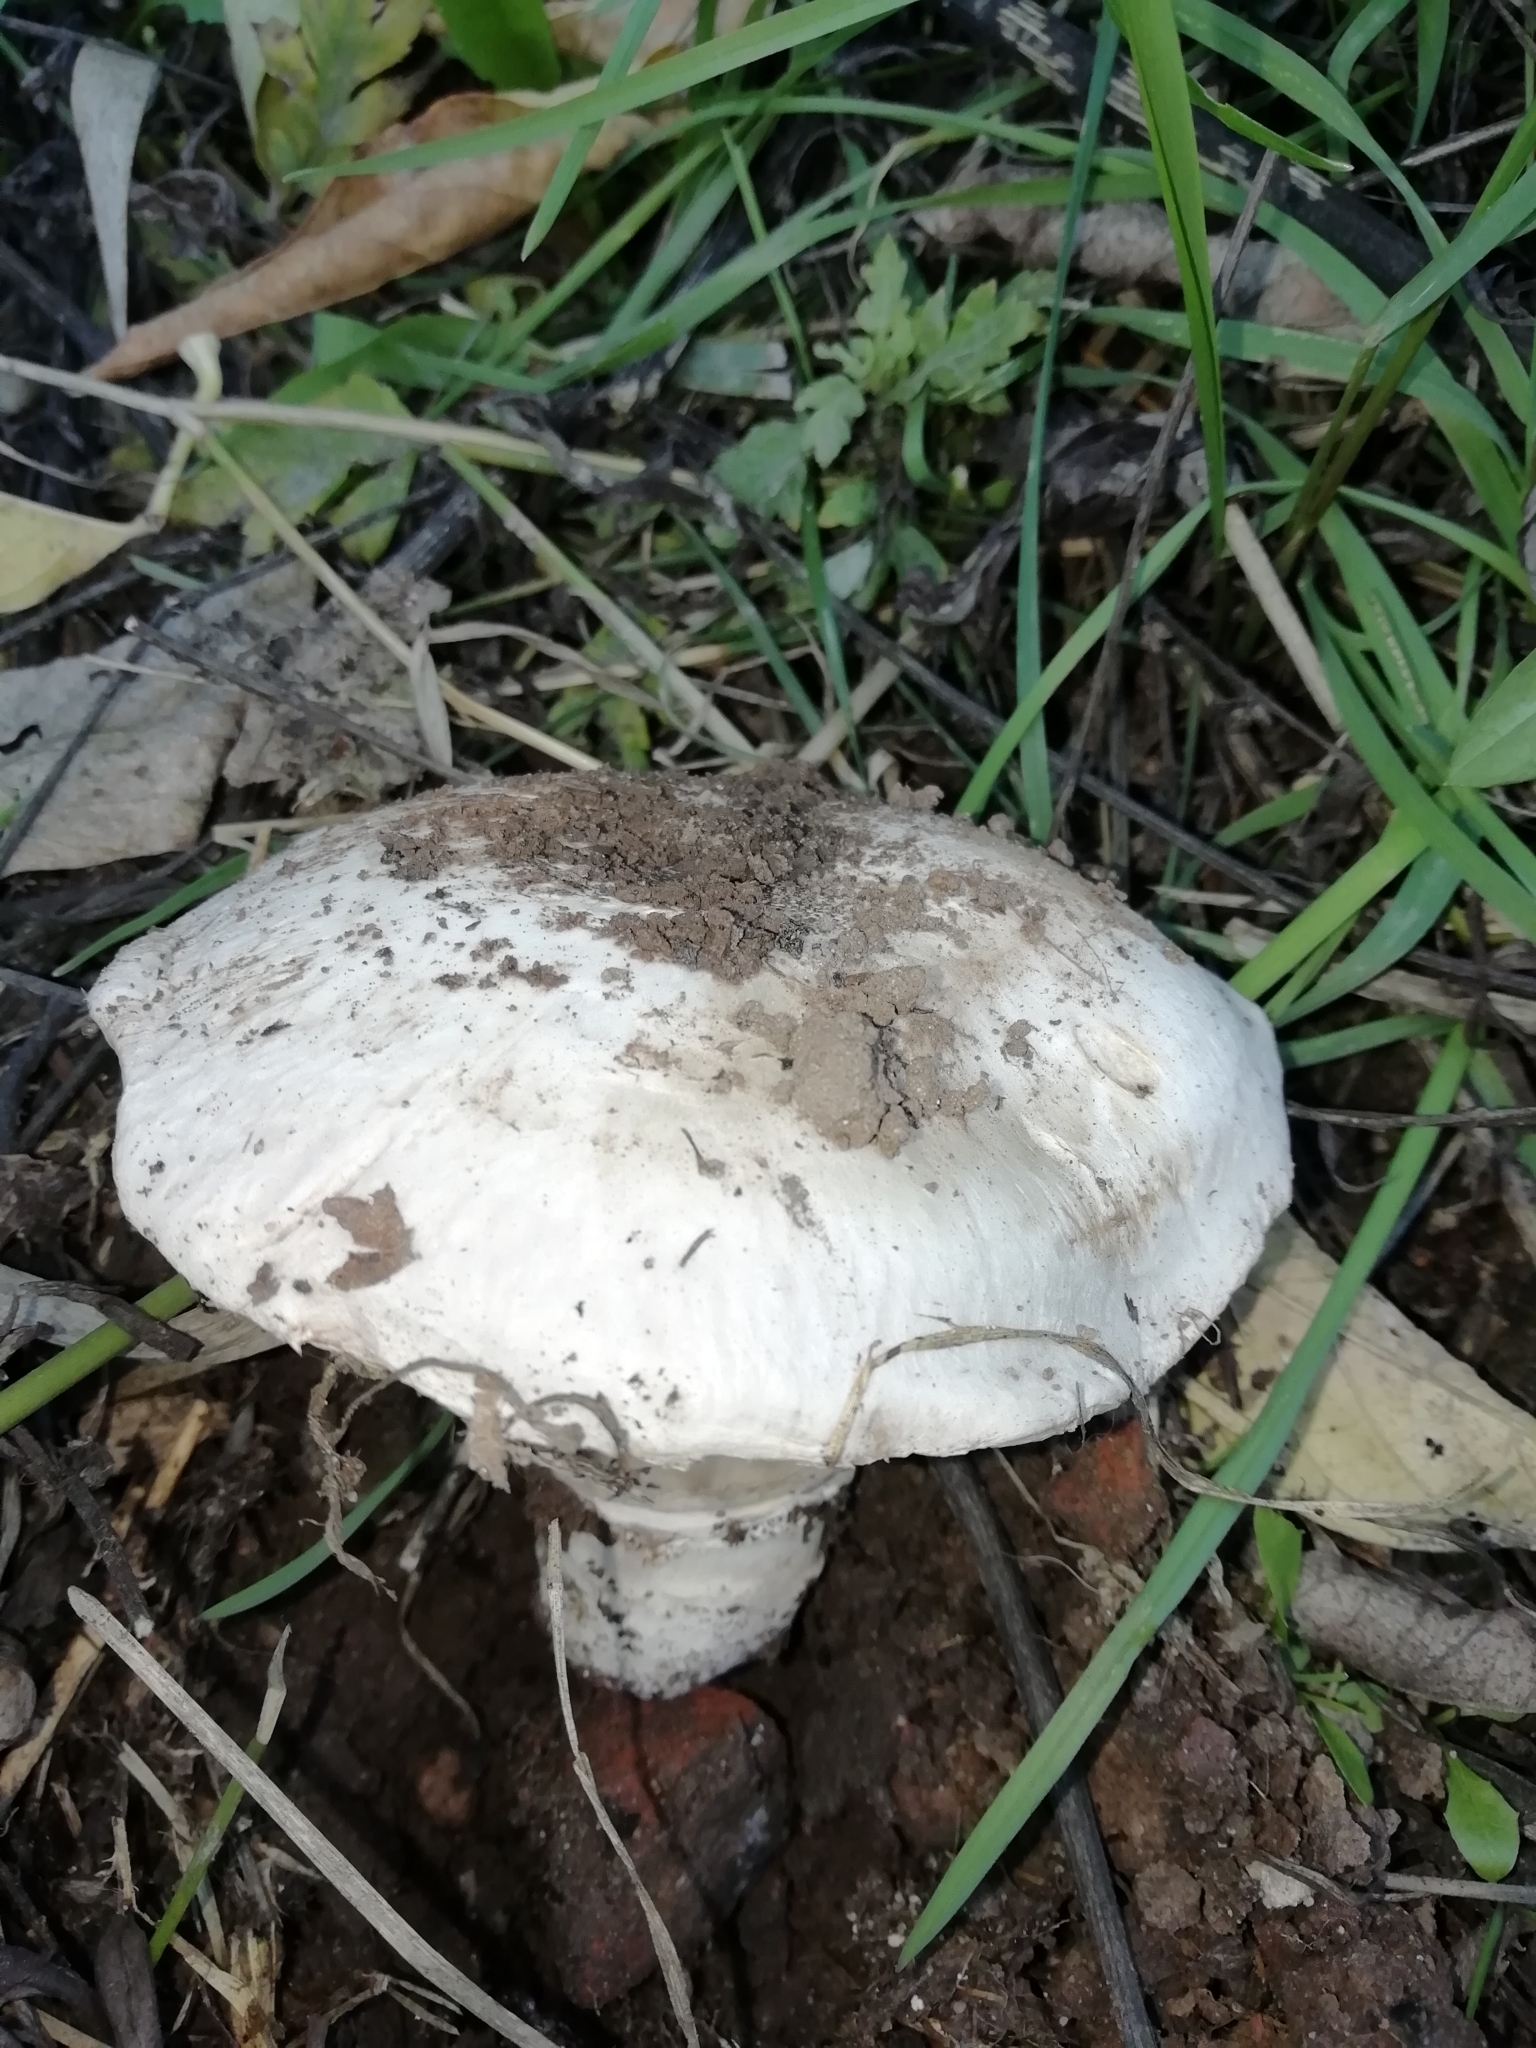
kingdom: Fungi
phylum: Basidiomycota
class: Agaricomycetes
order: Agaricales
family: Agaricaceae
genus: Agaricus
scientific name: Agaricus bitorquis
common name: Pavement mushroom
